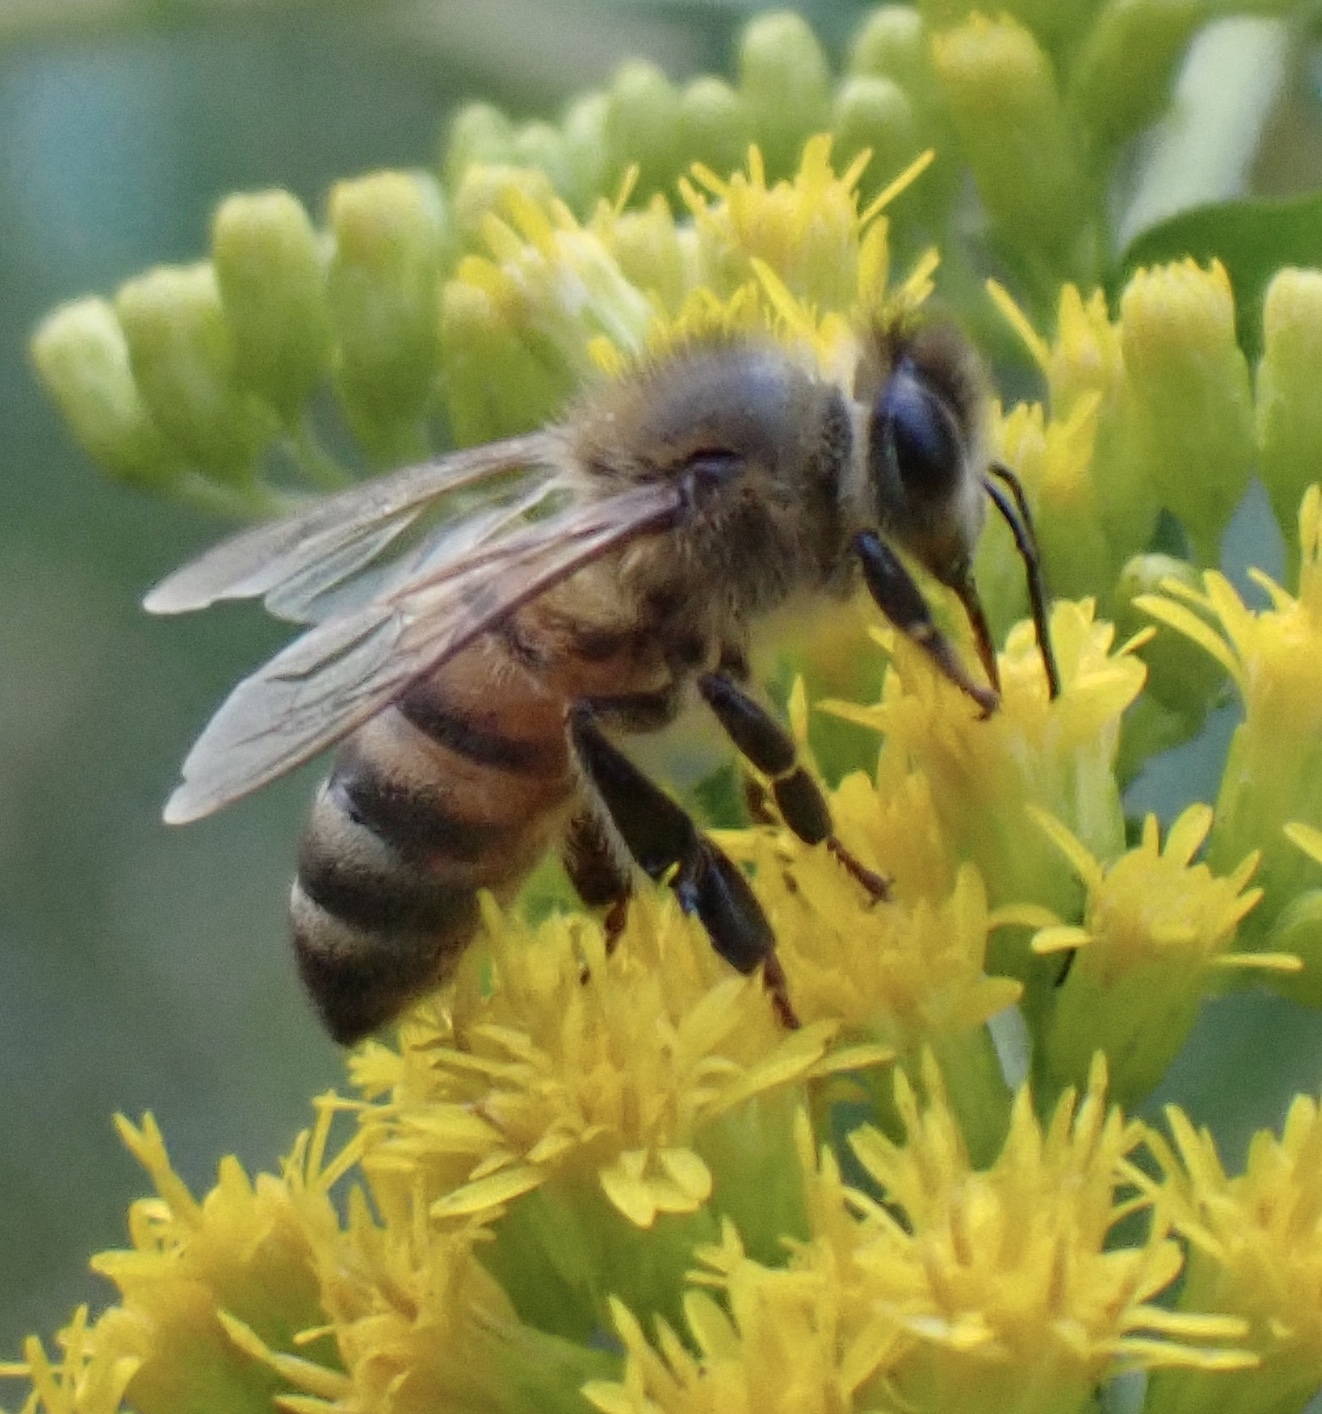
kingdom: Animalia
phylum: Arthropoda
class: Insecta
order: Hymenoptera
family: Apidae
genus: Apis
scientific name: Apis mellifera
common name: Honey bee
